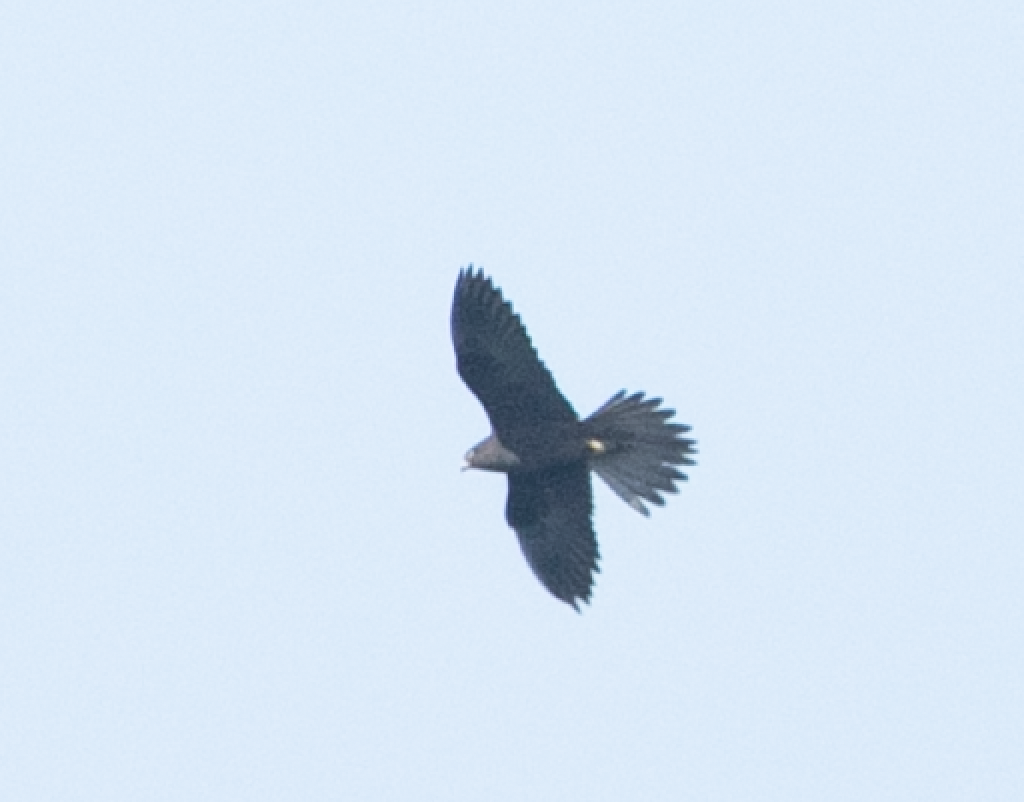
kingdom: Animalia
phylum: Chordata
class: Aves
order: Falconiformes
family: Falconidae
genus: Falco
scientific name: Falco eleonorae
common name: Eleonora's falcon
